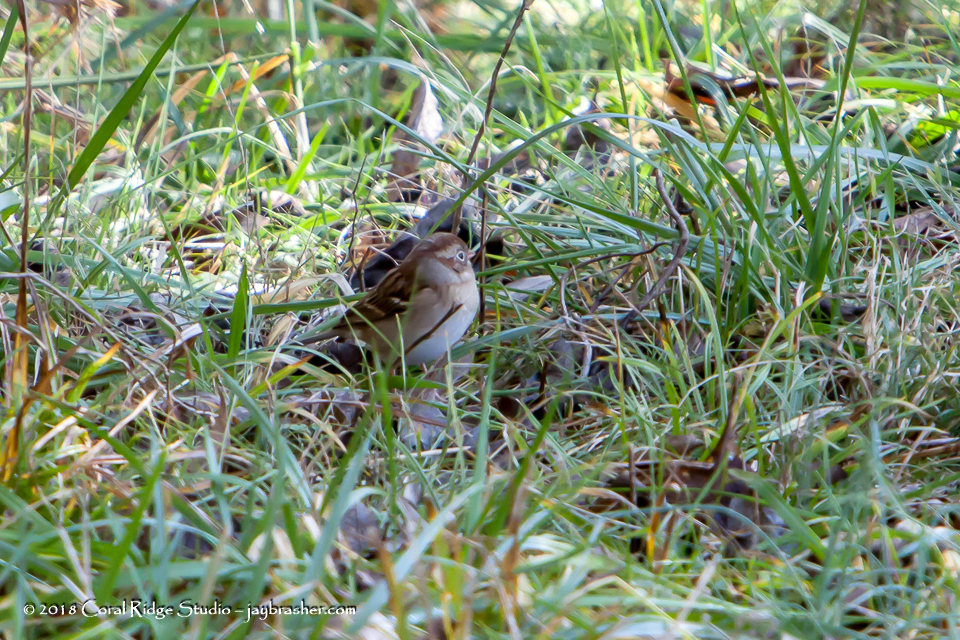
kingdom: Animalia
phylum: Chordata
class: Aves
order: Passeriformes
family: Passerellidae
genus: Spizella
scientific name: Spizella pusilla
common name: Field sparrow
